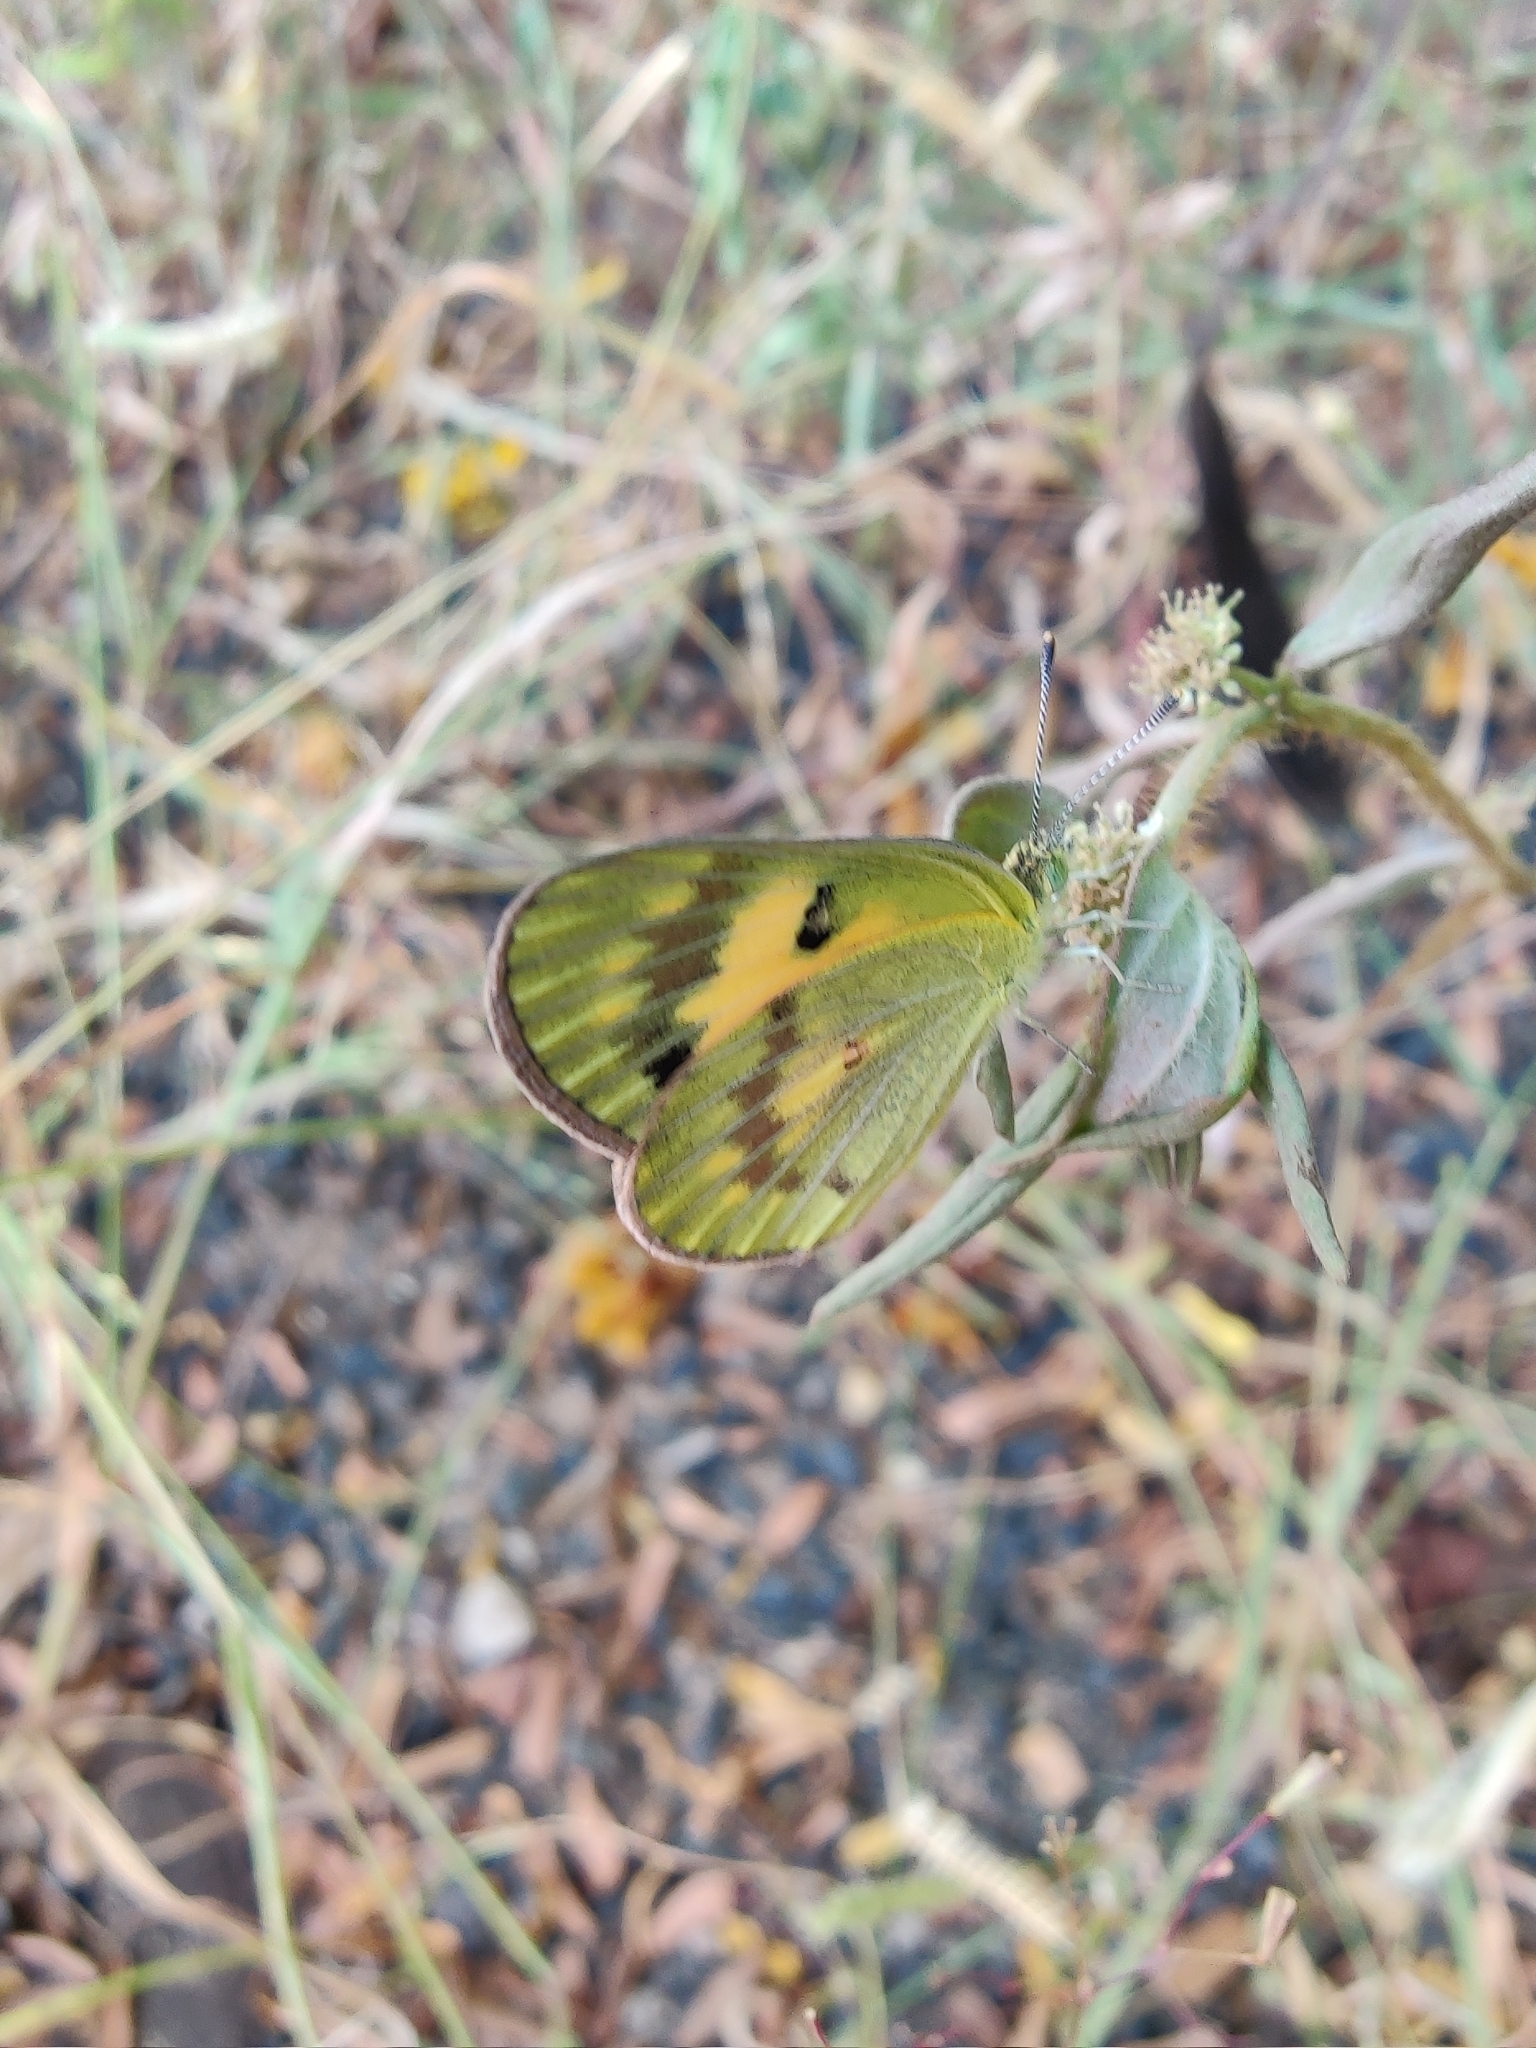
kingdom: Animalia
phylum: Arthropoda
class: Insecta
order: Lepidoptera
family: Pieridae
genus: Colotis
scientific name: Colotis amata
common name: Small salmon arab
